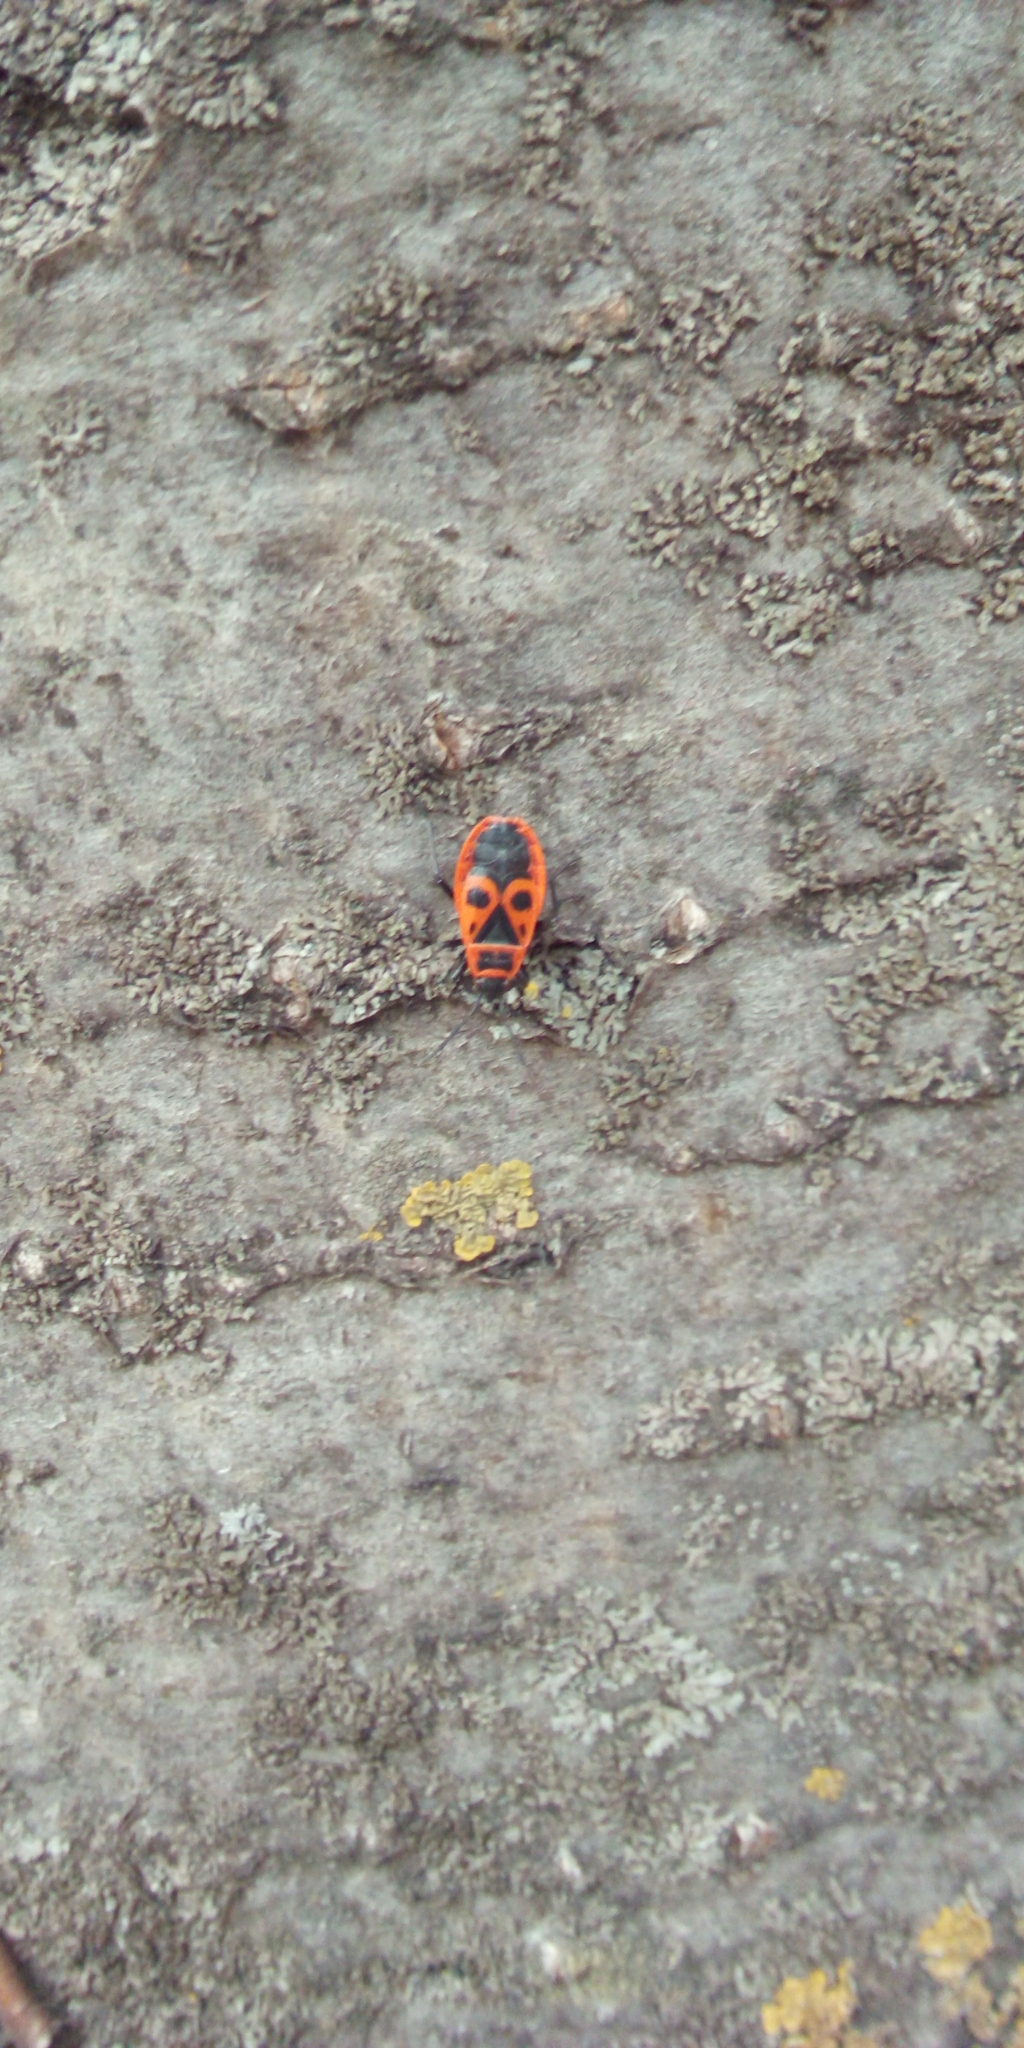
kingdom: Animalia
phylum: Arthropoda
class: Insecta
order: Hemiptera
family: Pyrrhocoridae
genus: Pyrrhocoris
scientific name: Pyrrhocoris apterus
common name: Firebug
